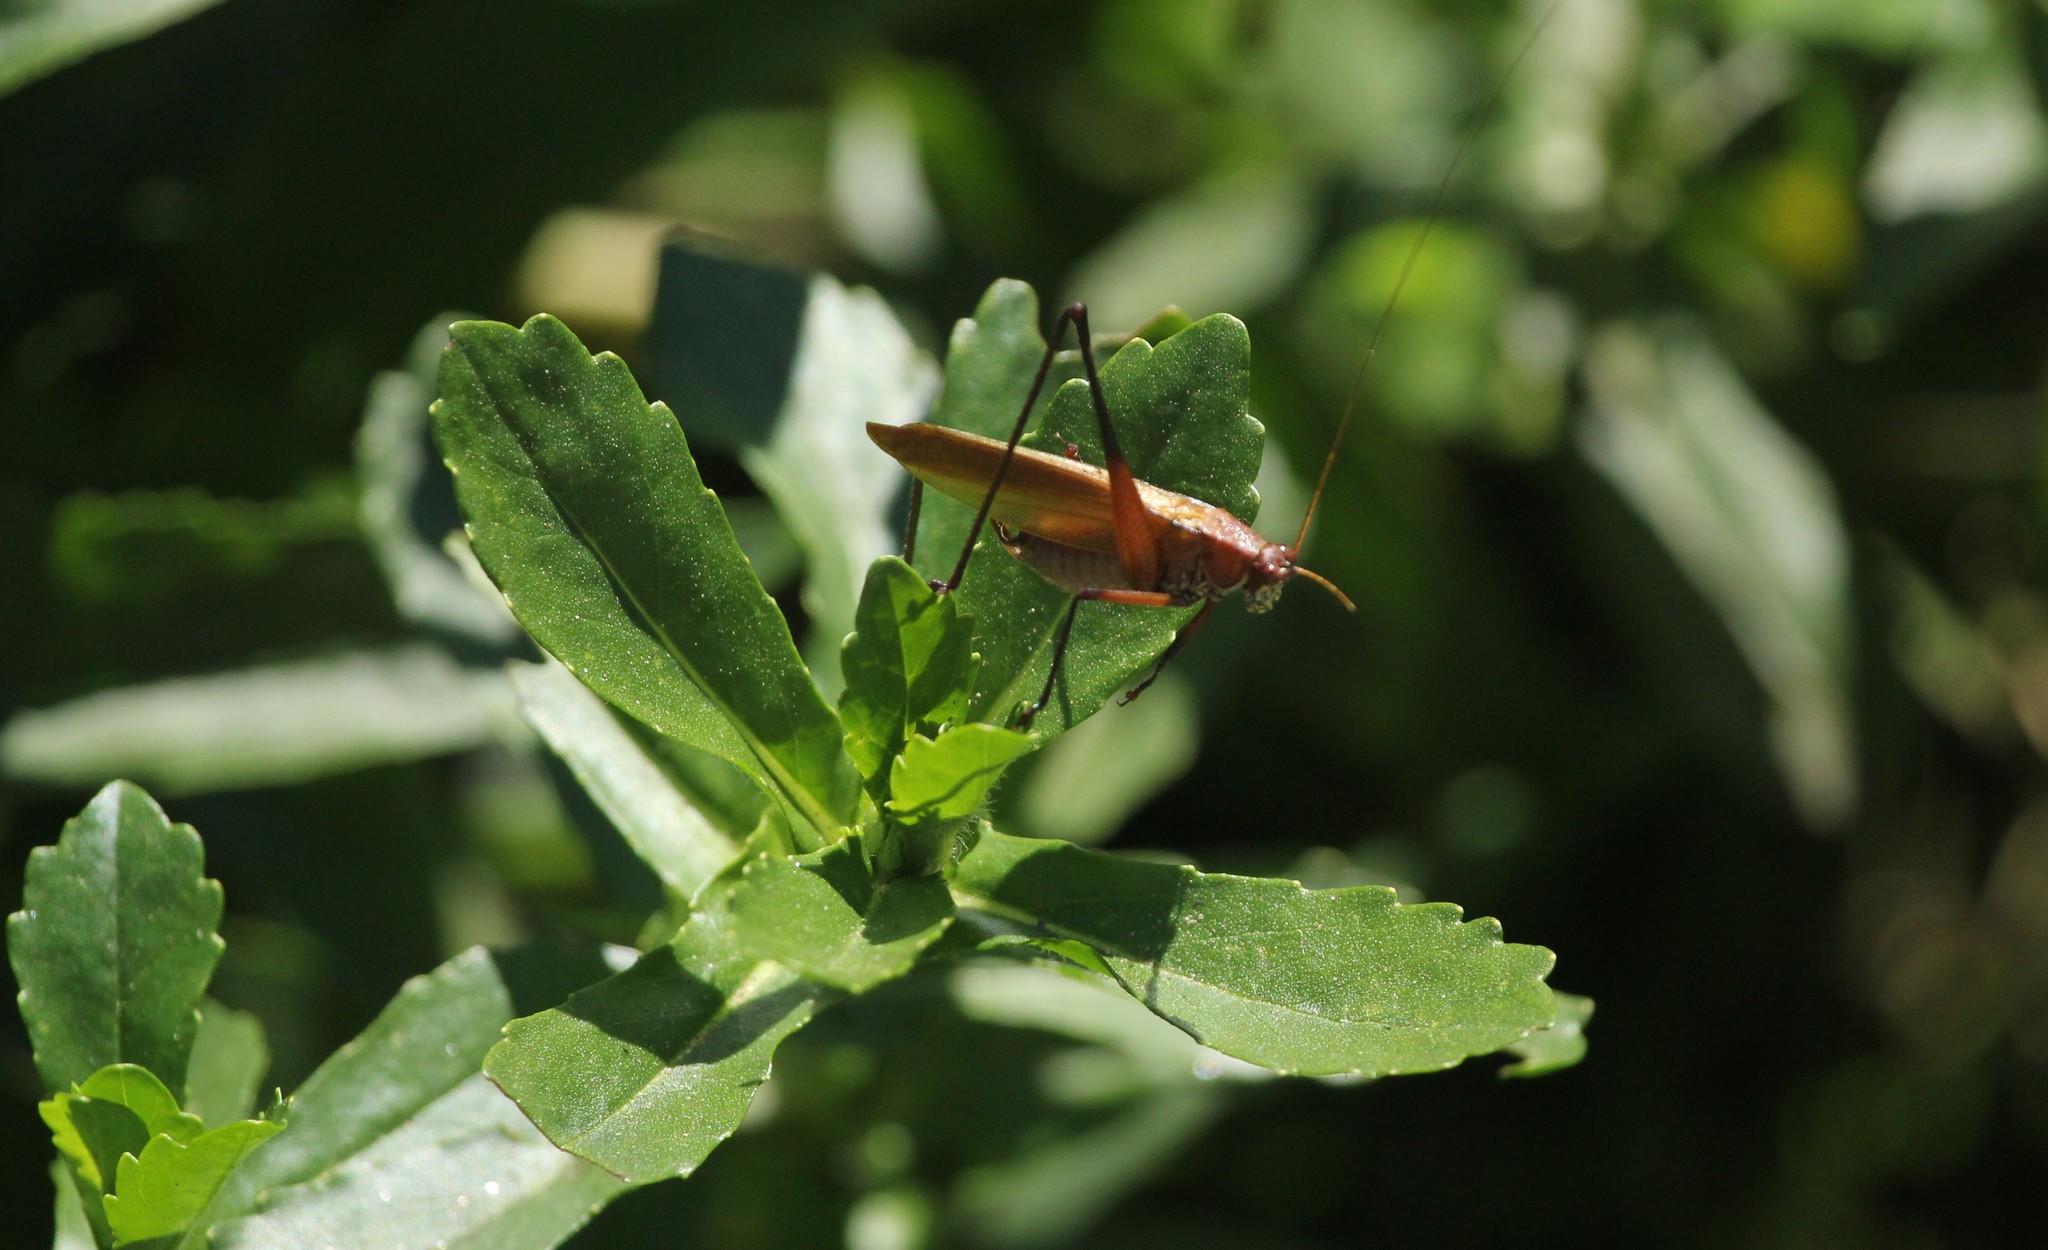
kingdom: Animalia
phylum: Arthropoda
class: Insecta
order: Orthoptera
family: Tettigoniidae
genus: Theudoria
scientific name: Theudoria melanocnemis
